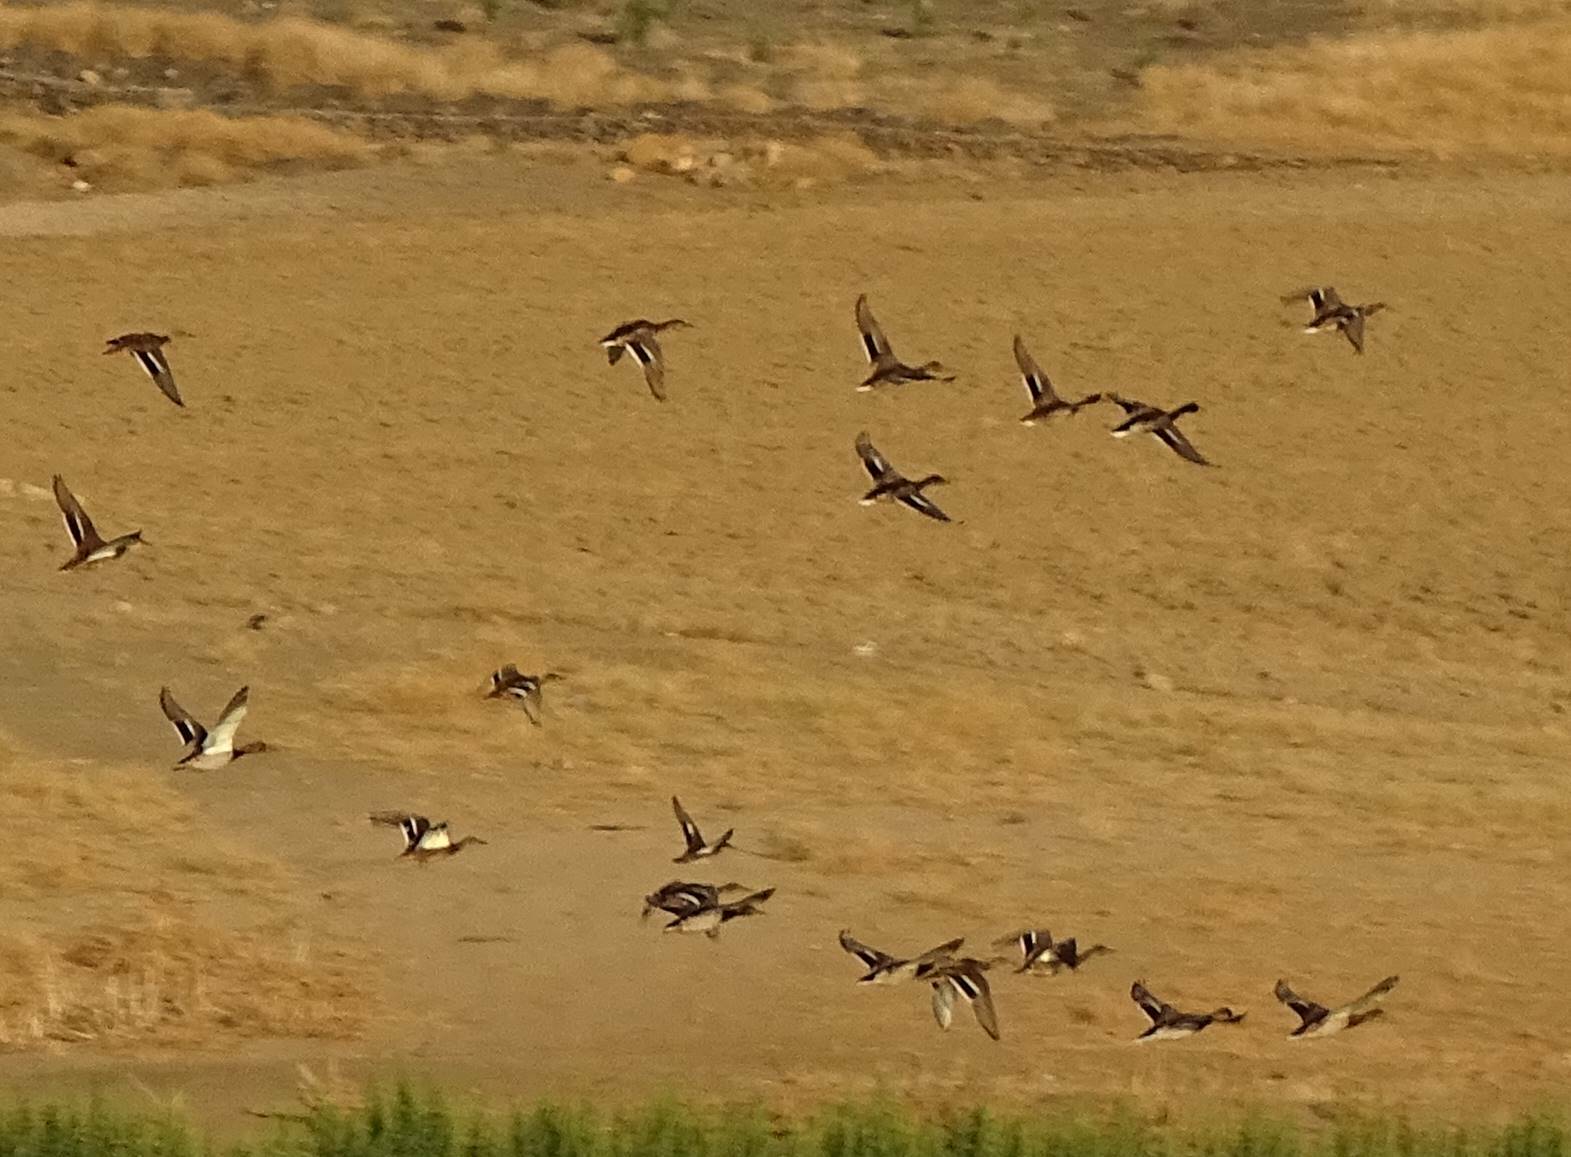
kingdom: Animalia
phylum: Chordata
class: Aves
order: Anseriformes
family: Anatidae
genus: Anas
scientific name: Anas crecca
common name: Eurasian teal
